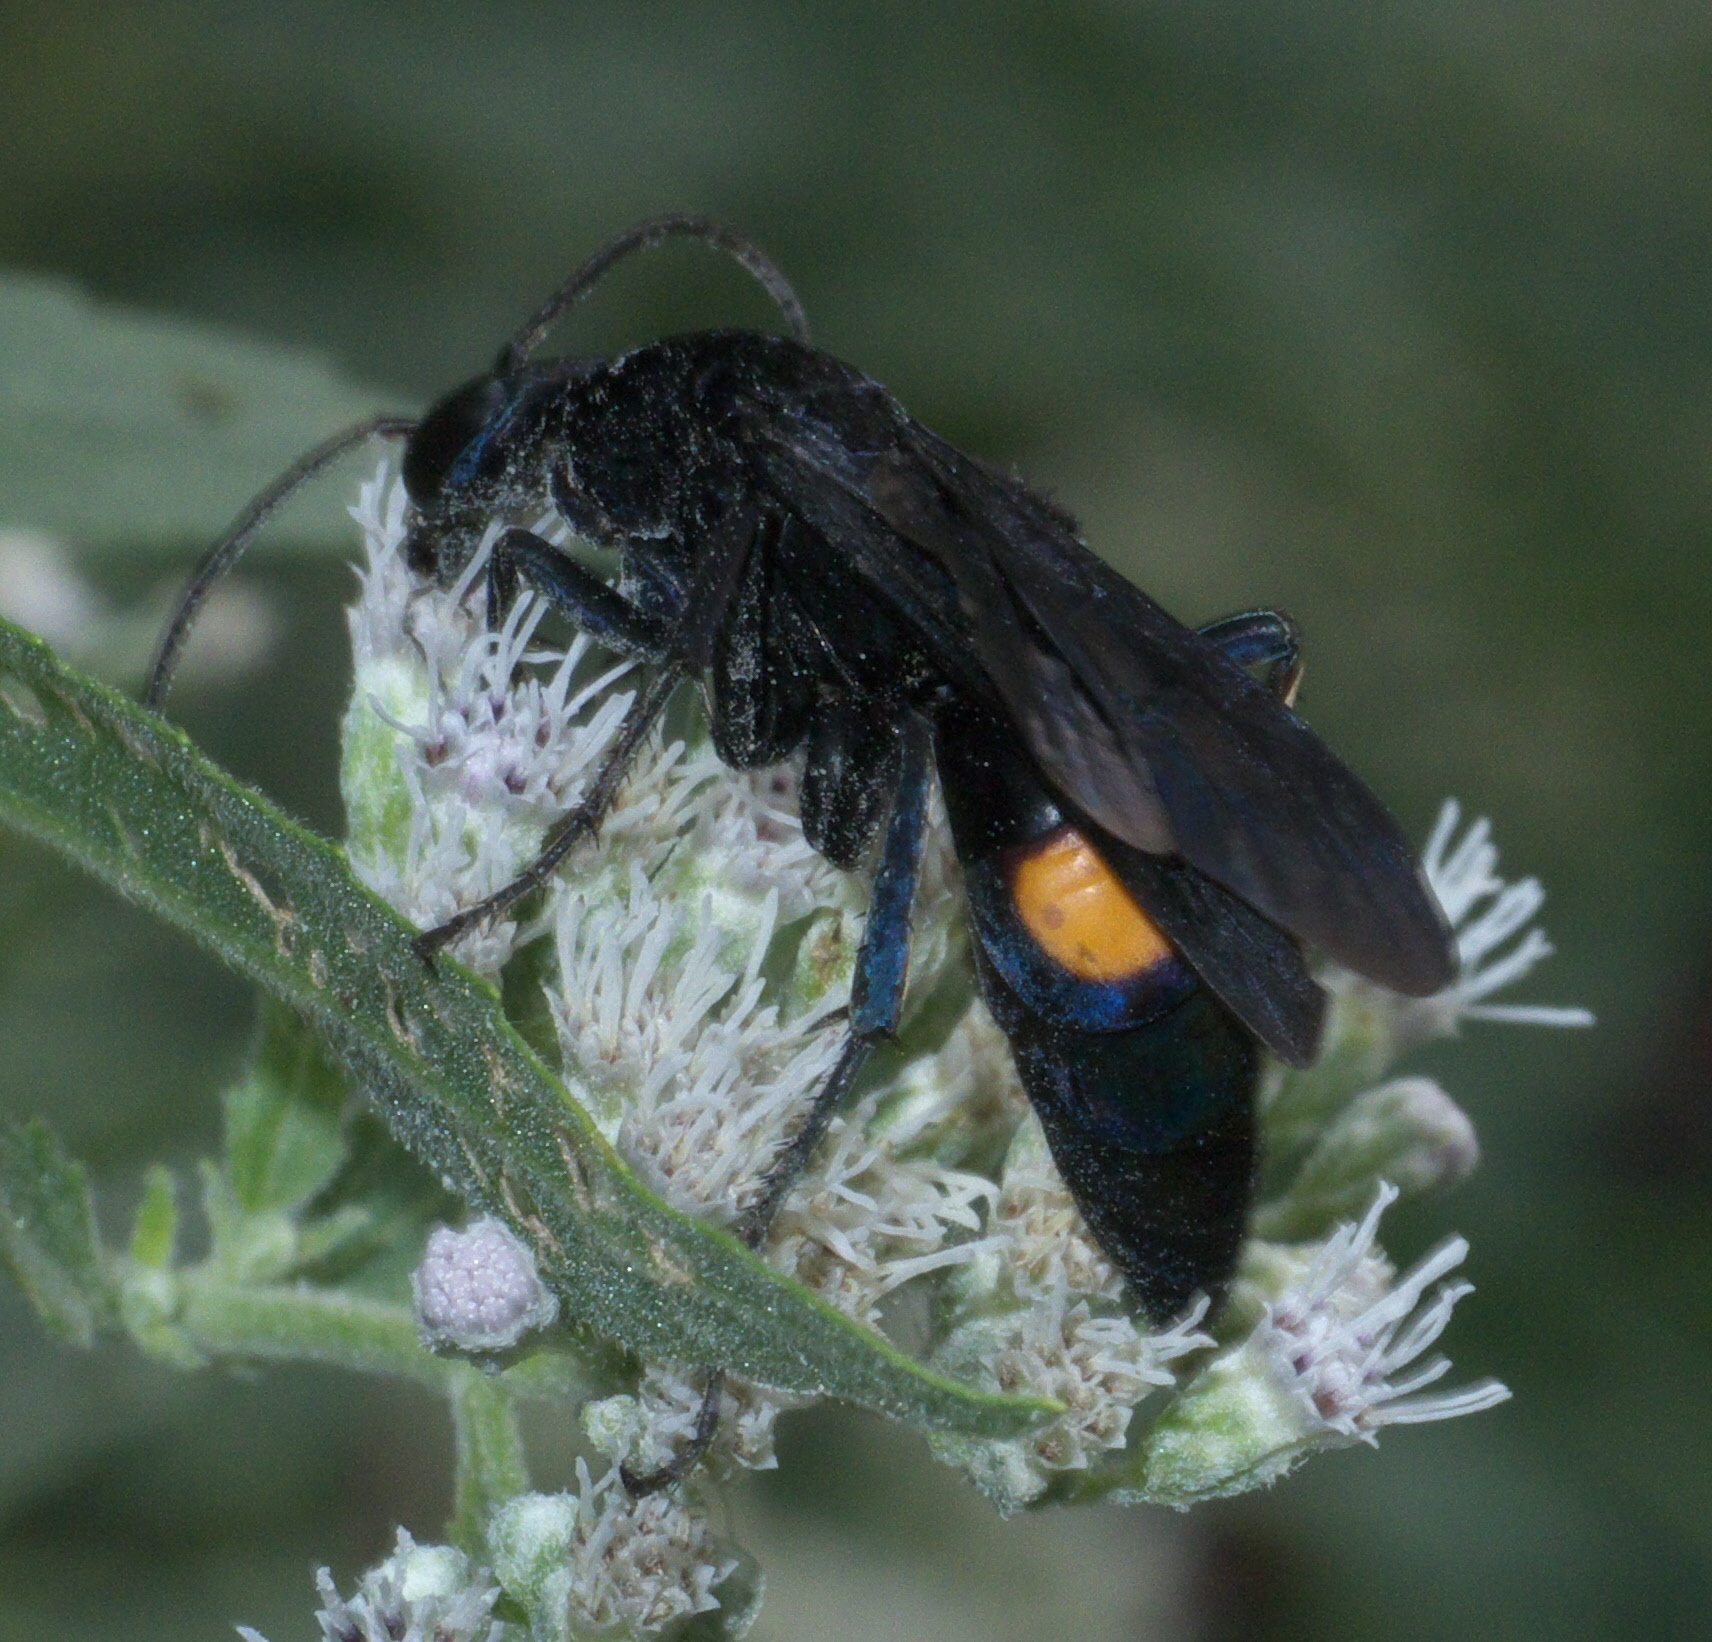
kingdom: Animalia
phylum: Arthropoda
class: Insecta
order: Hymenoptera
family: Pompilidae
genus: Psorthaspis
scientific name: Psorthaspis brimleyi
